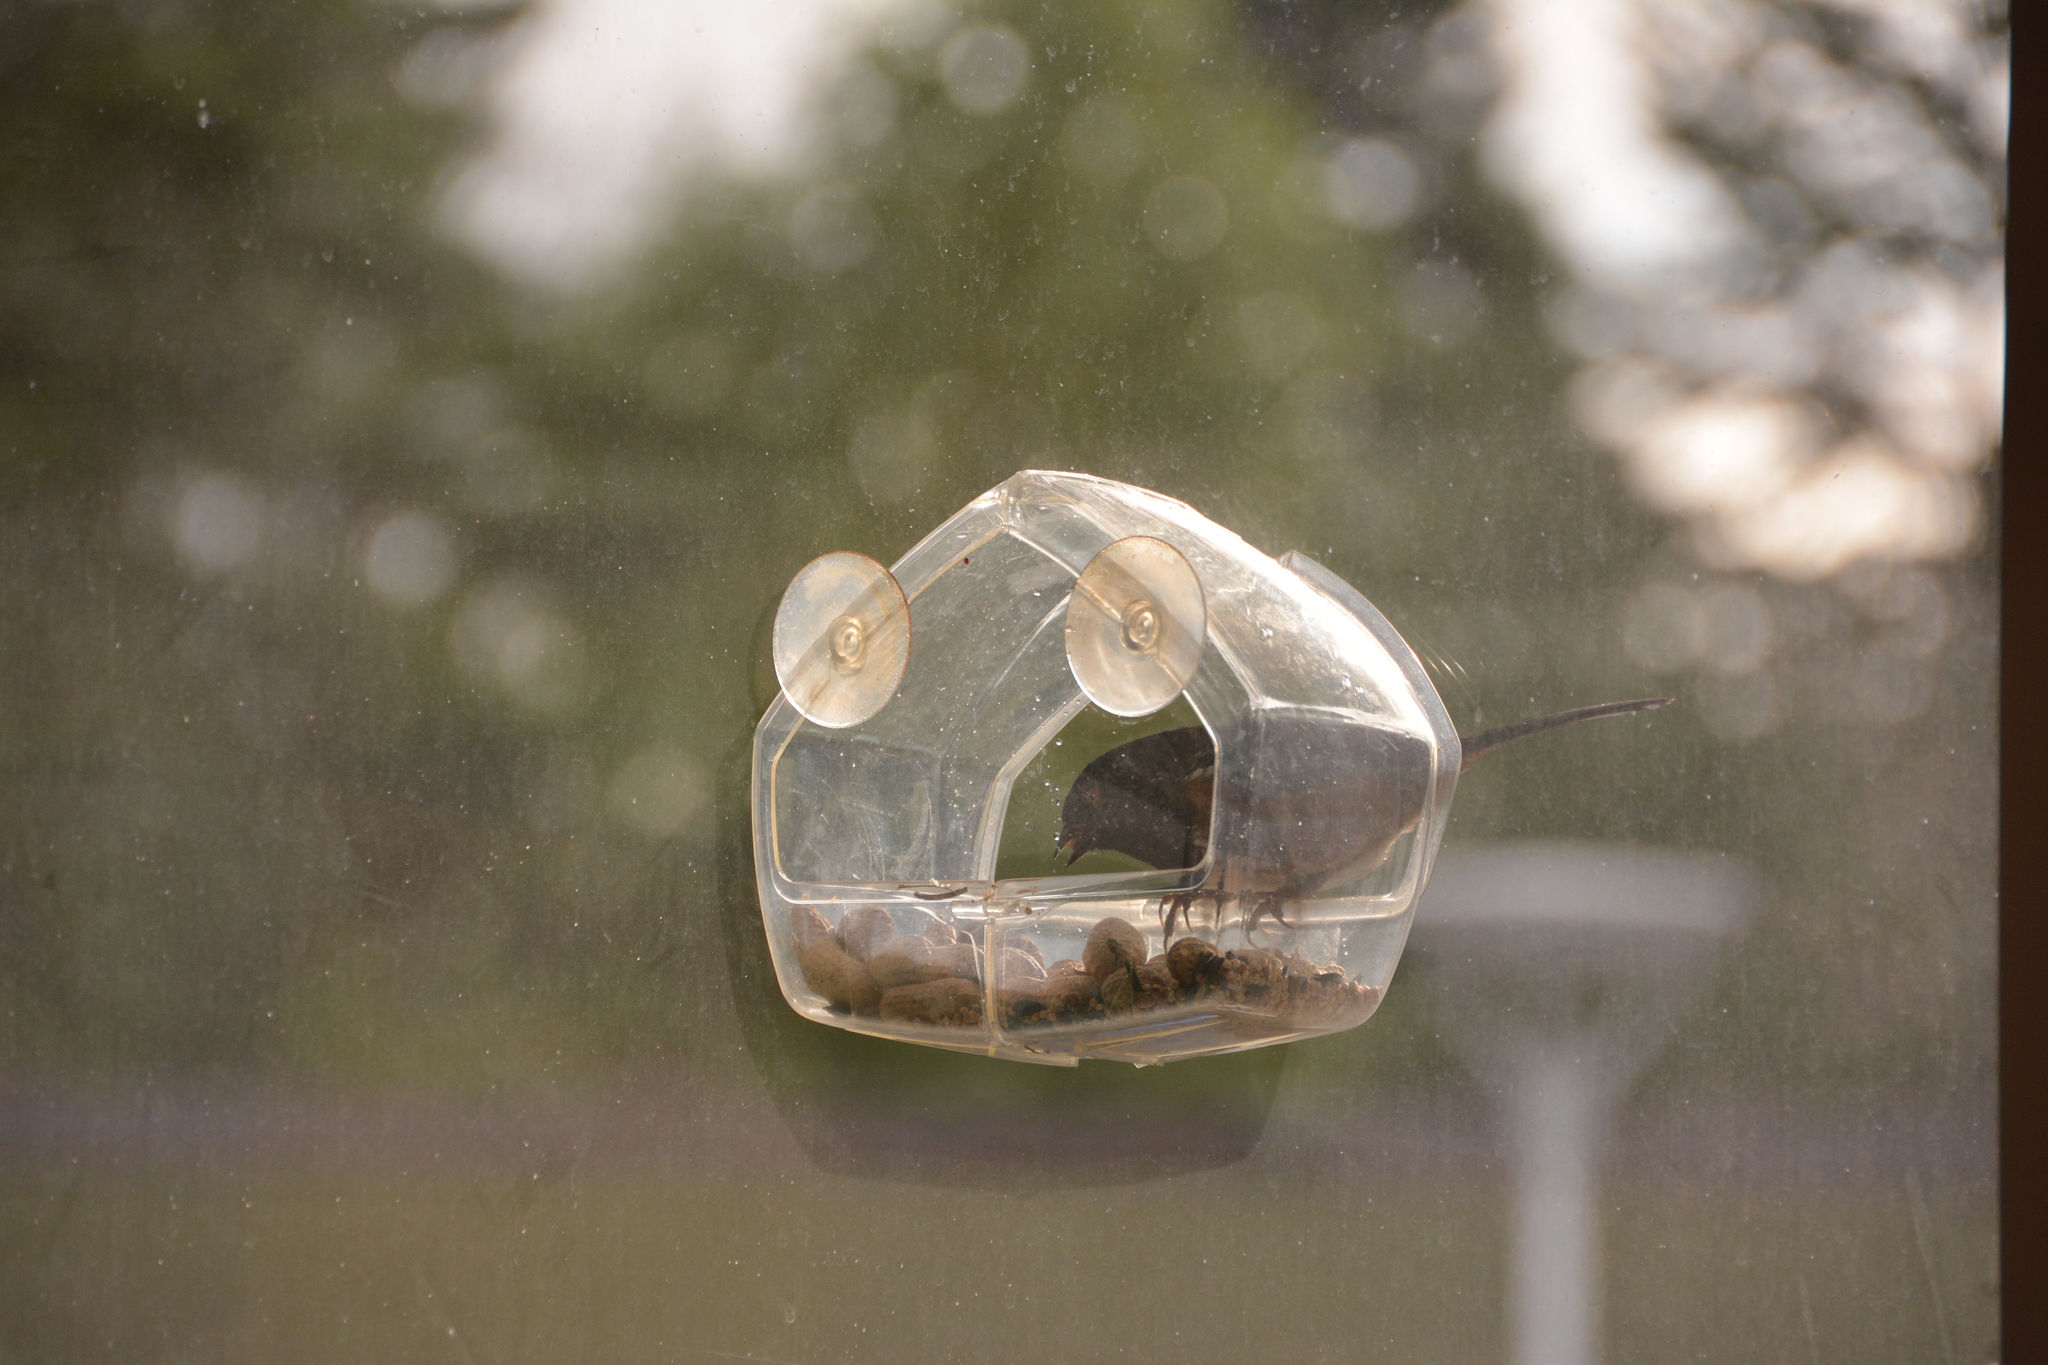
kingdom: Animalia
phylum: Chordata
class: Aves
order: Passeriformes
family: Passerellidae
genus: Pipilo
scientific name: Pipilo maculatus
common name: Spotted towhee
